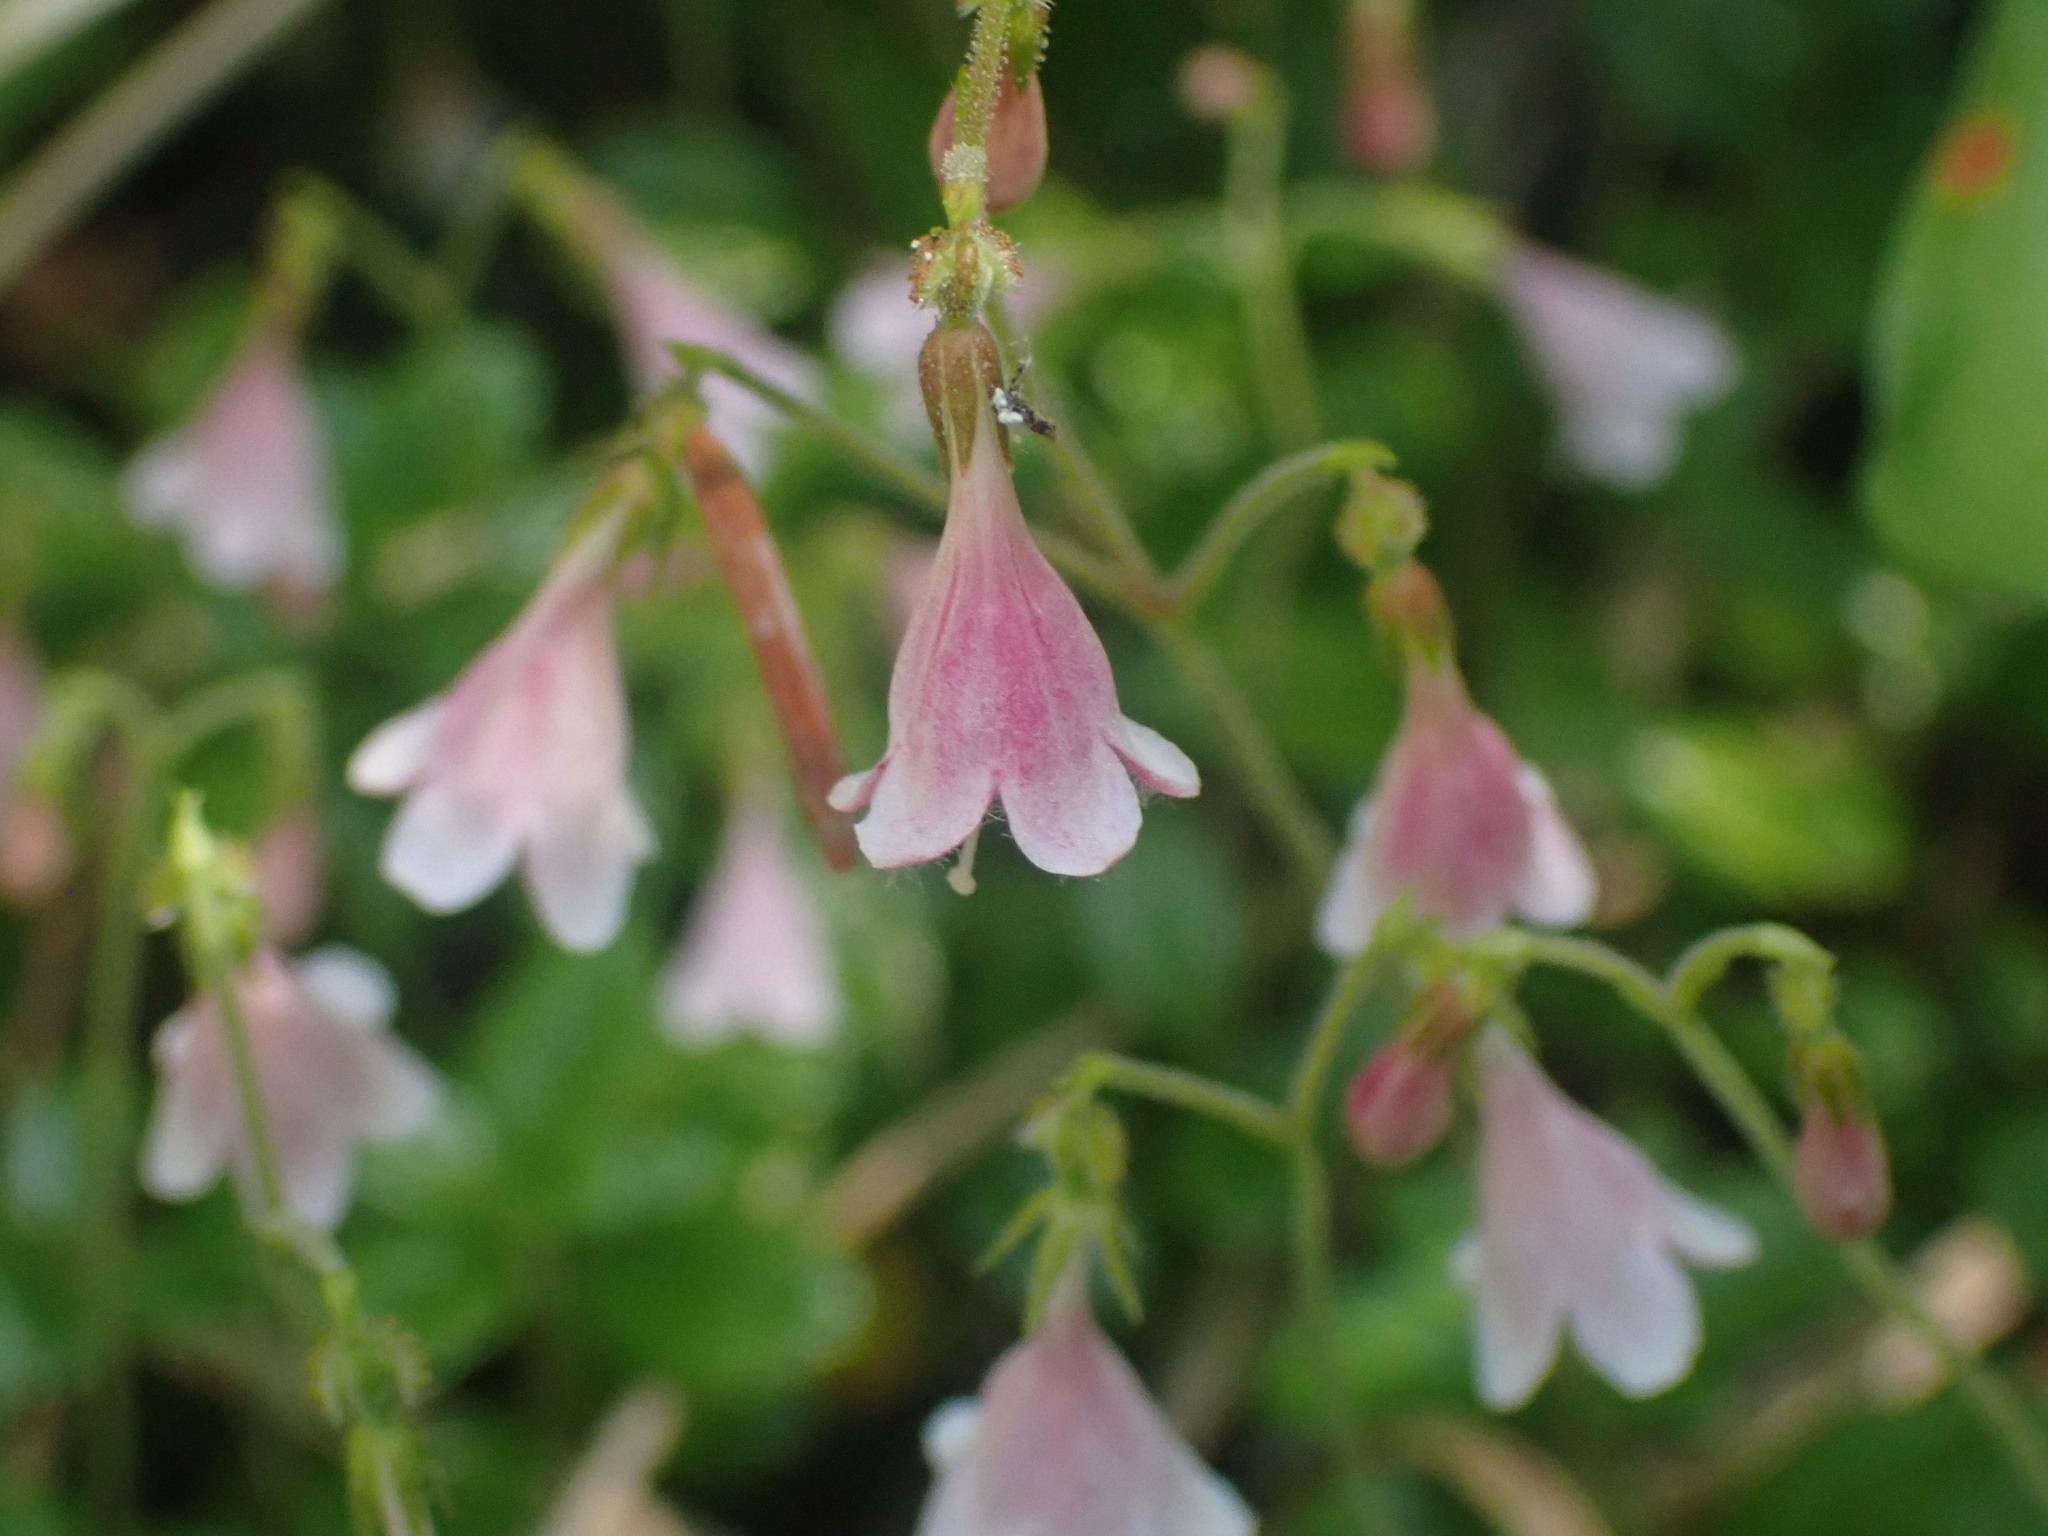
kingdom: Plantae
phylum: Tracheophyta
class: Magnoliopsida
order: Dipsacales
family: Caprifoliaceae
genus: Linnaea
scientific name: Linnaea borealis
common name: Twinflower
